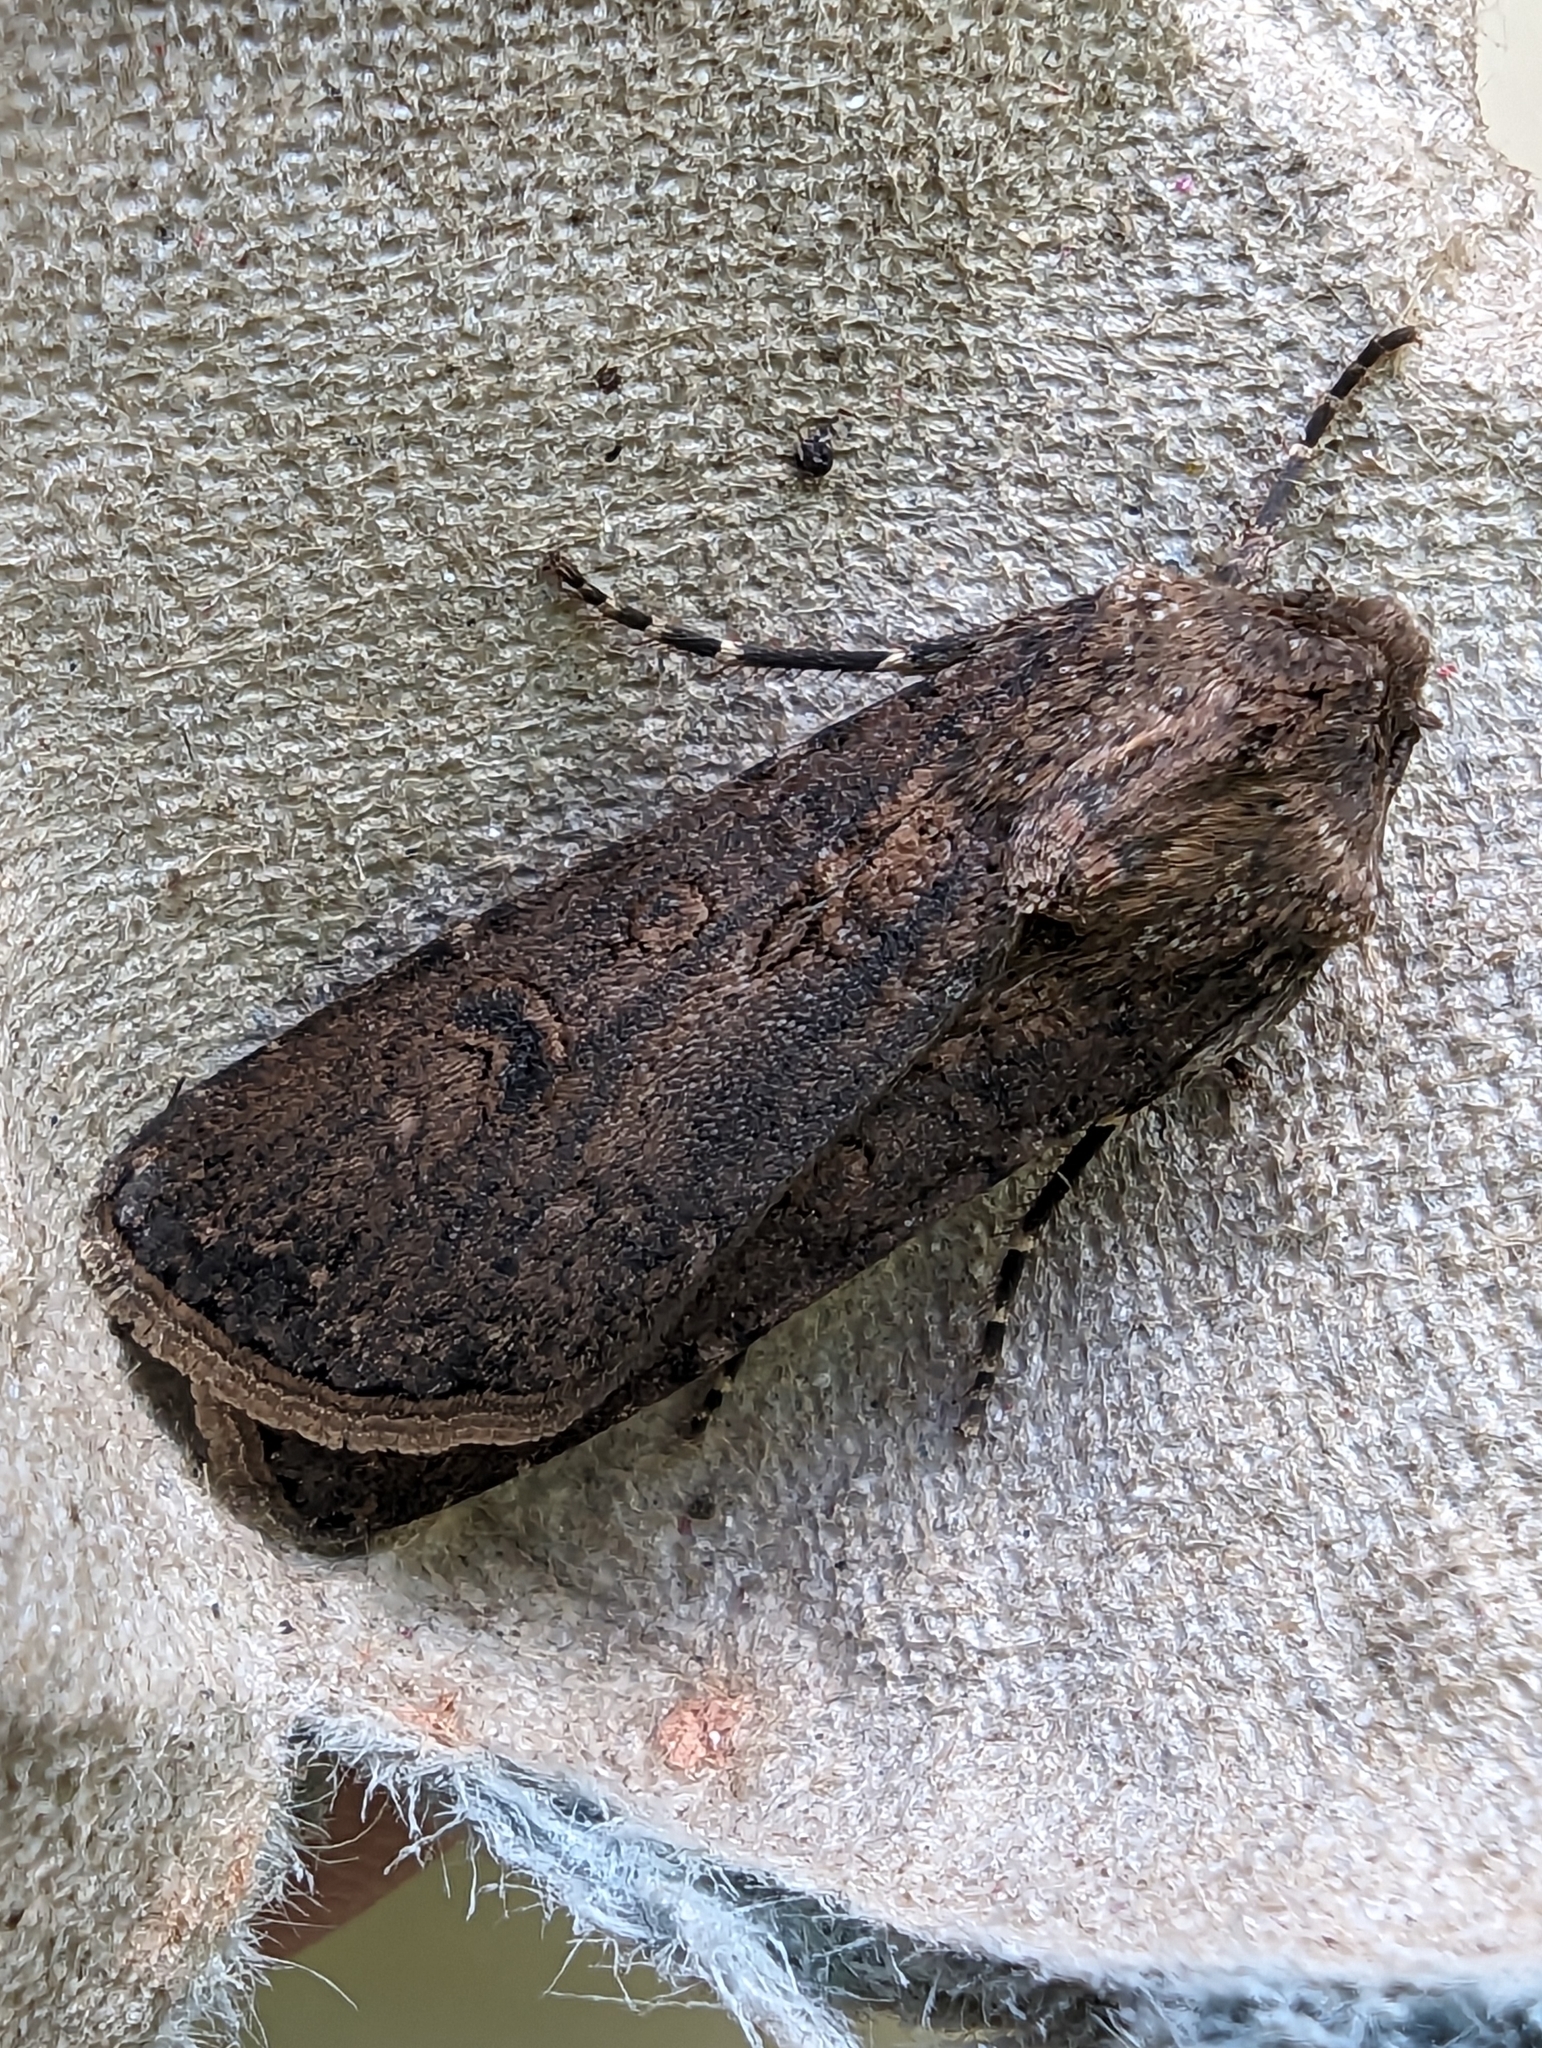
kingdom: Animalia
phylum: Arthropoda
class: Insecta
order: Lepidoptera
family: Noctuidae
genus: Agrotis
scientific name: Agrotis segetum
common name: Turnip moth
